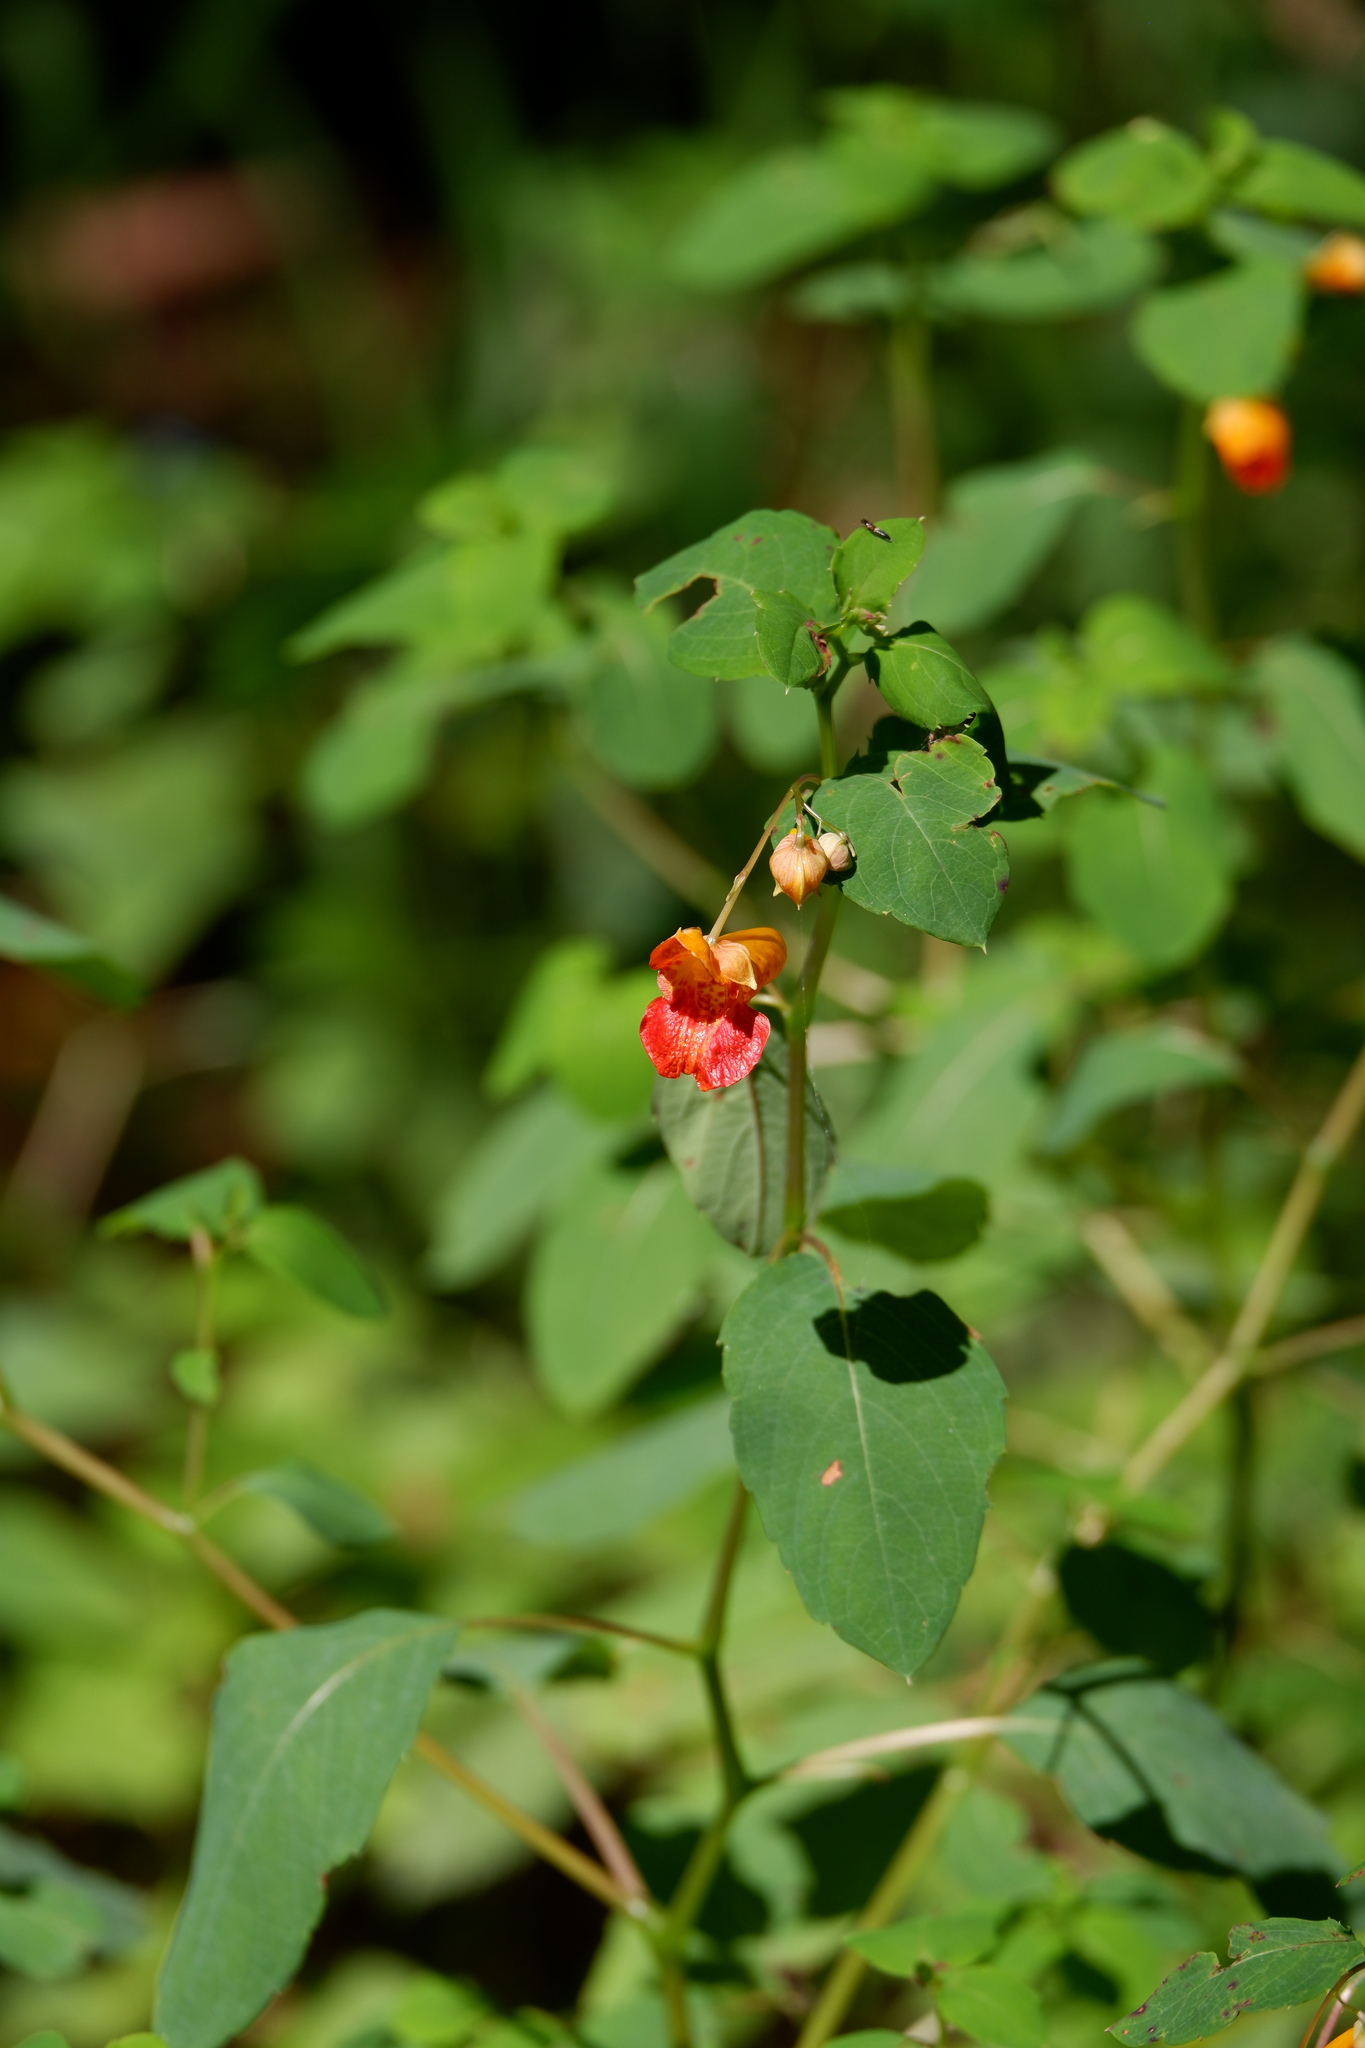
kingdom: Plantae
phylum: Tracheophyta
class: Magnoliopsida
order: Ericales
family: Balsaminaceae
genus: Impatiens
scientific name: Impatiens capensis
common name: Orange balsam
